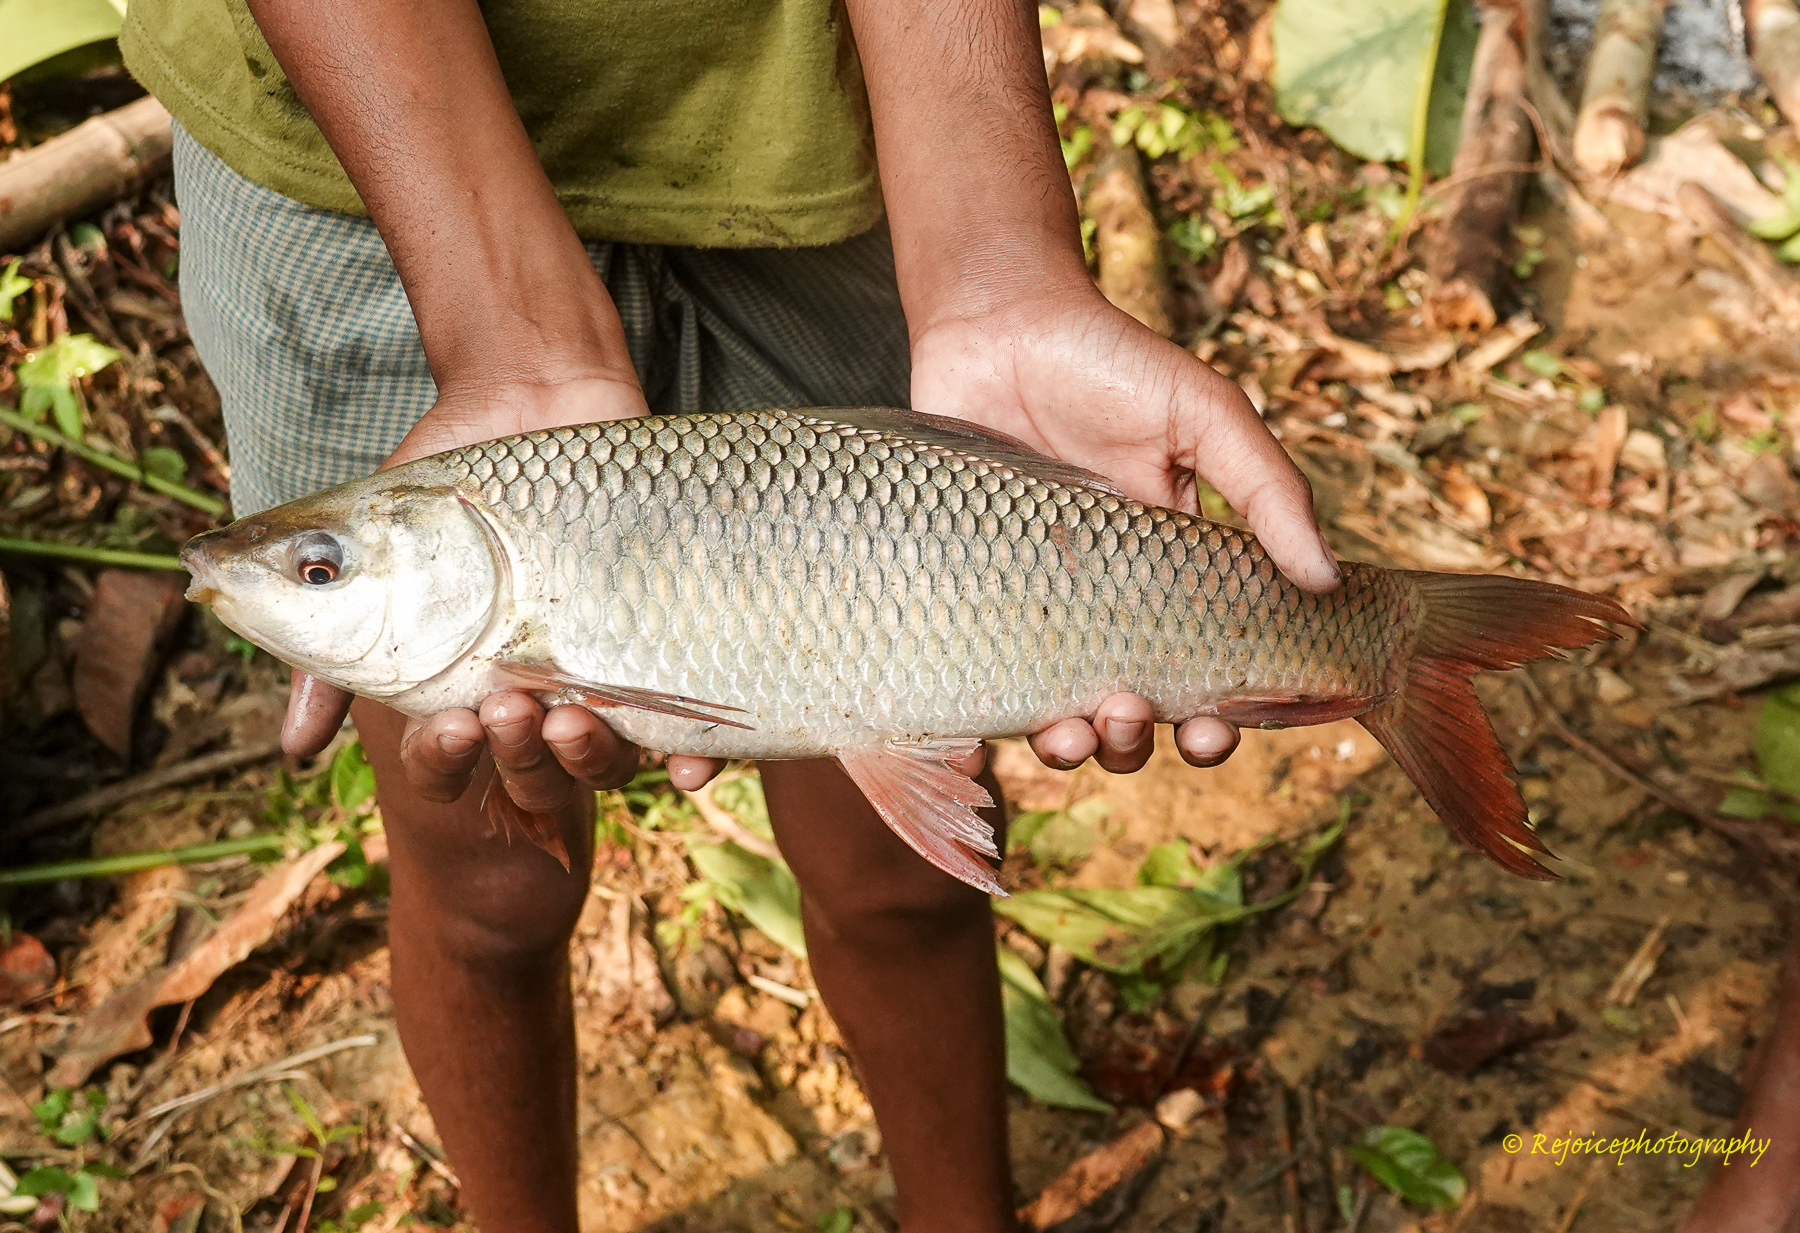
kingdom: Animalia
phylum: Chordata
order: Cypriniformes
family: Cyprinidae
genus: Labeo
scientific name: Labeo bata
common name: Bata
